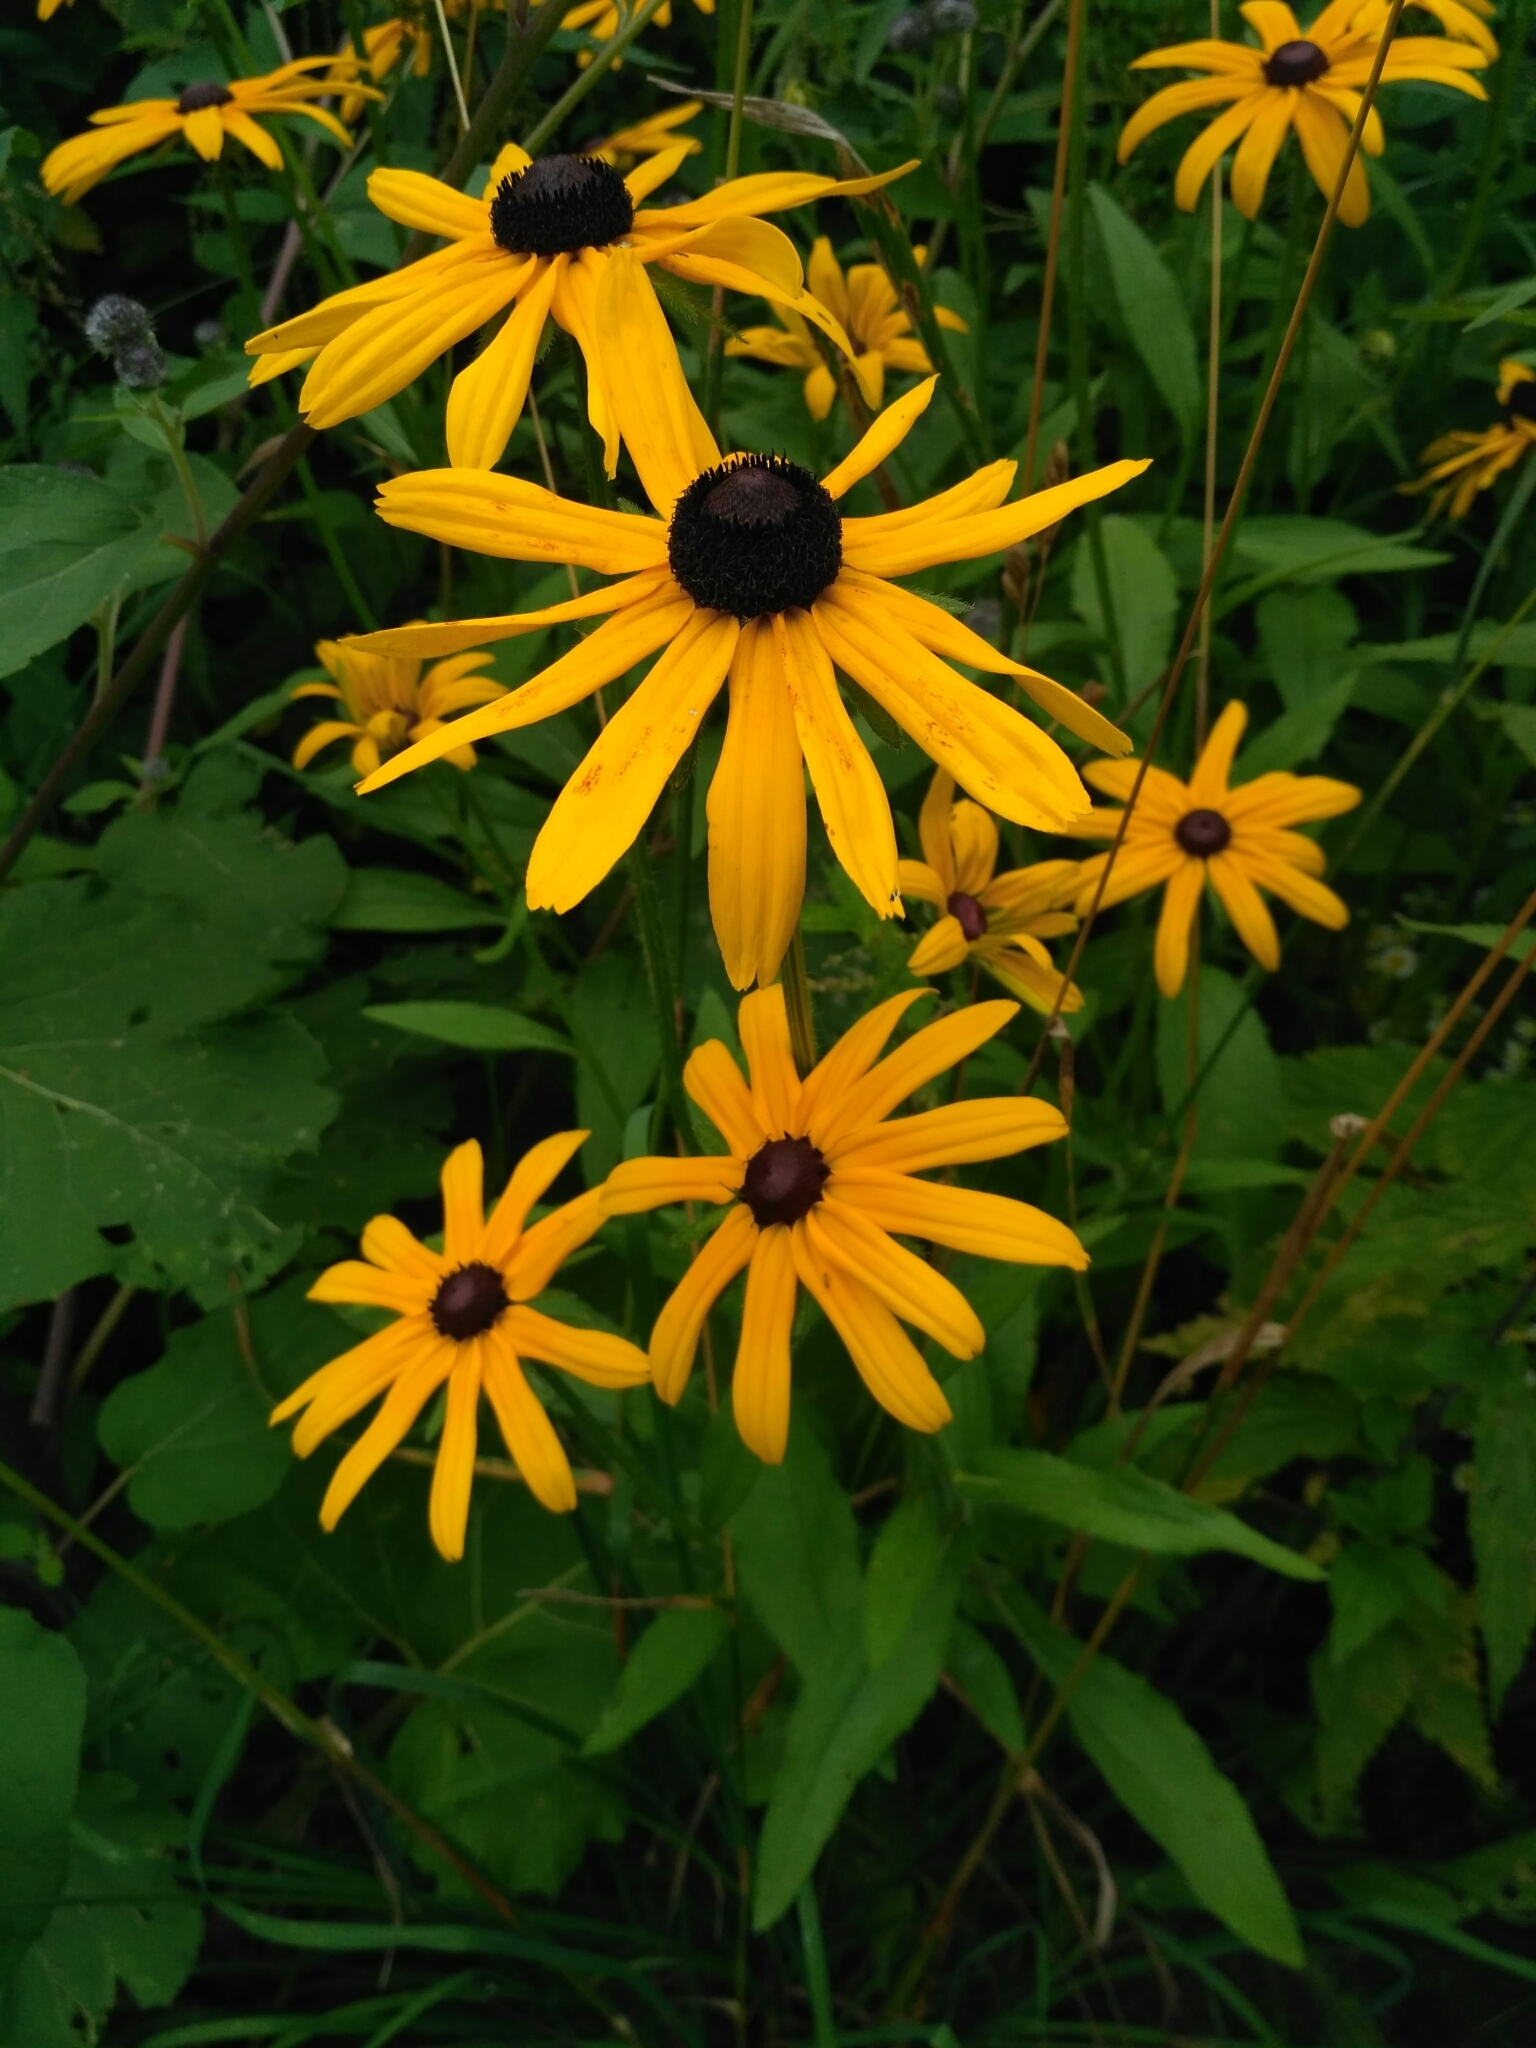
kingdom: Plantae
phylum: Tracheophyta
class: Magnoliopsida
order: Asterales
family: Asteraceae
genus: Rudbeckia
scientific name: Rudbeckia hirta
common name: Black-eyed-susan
